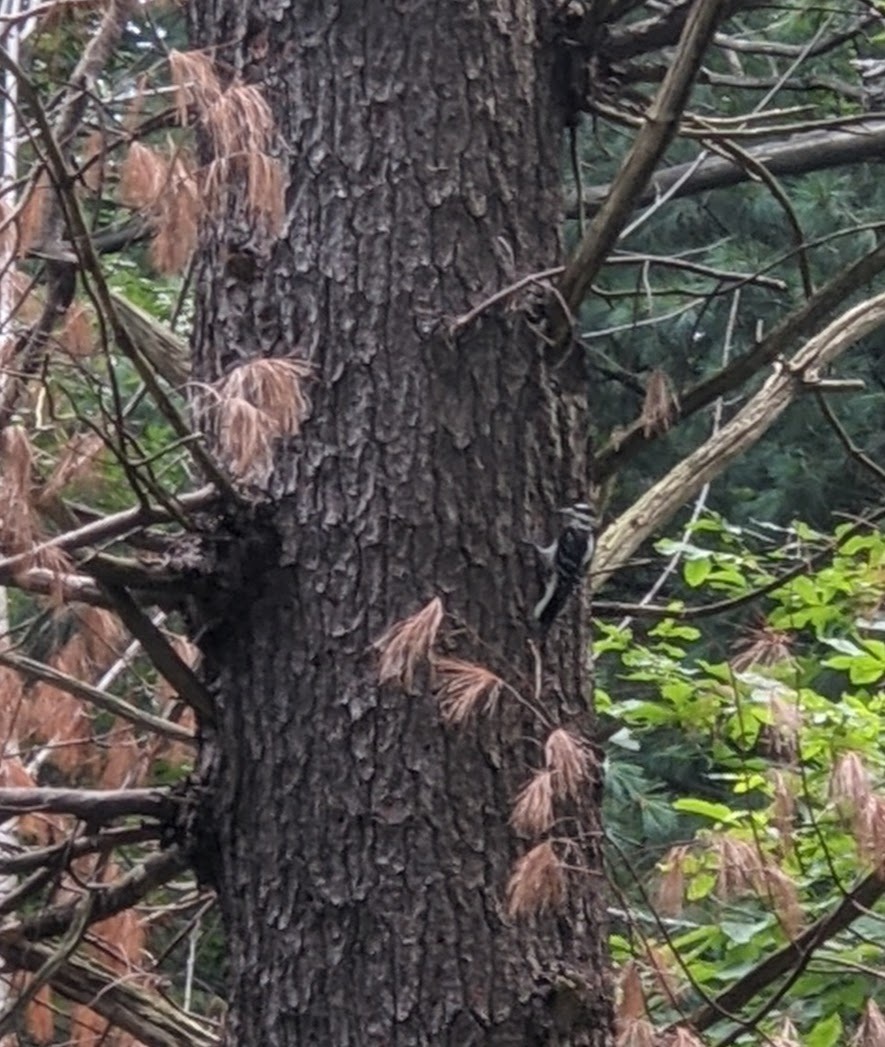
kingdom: Animalia
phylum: Chordata
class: Aves
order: Piciformes
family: Picidae
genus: Leuconotopicus
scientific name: Leuconotopicus villosus
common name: Hairy woodpecker
